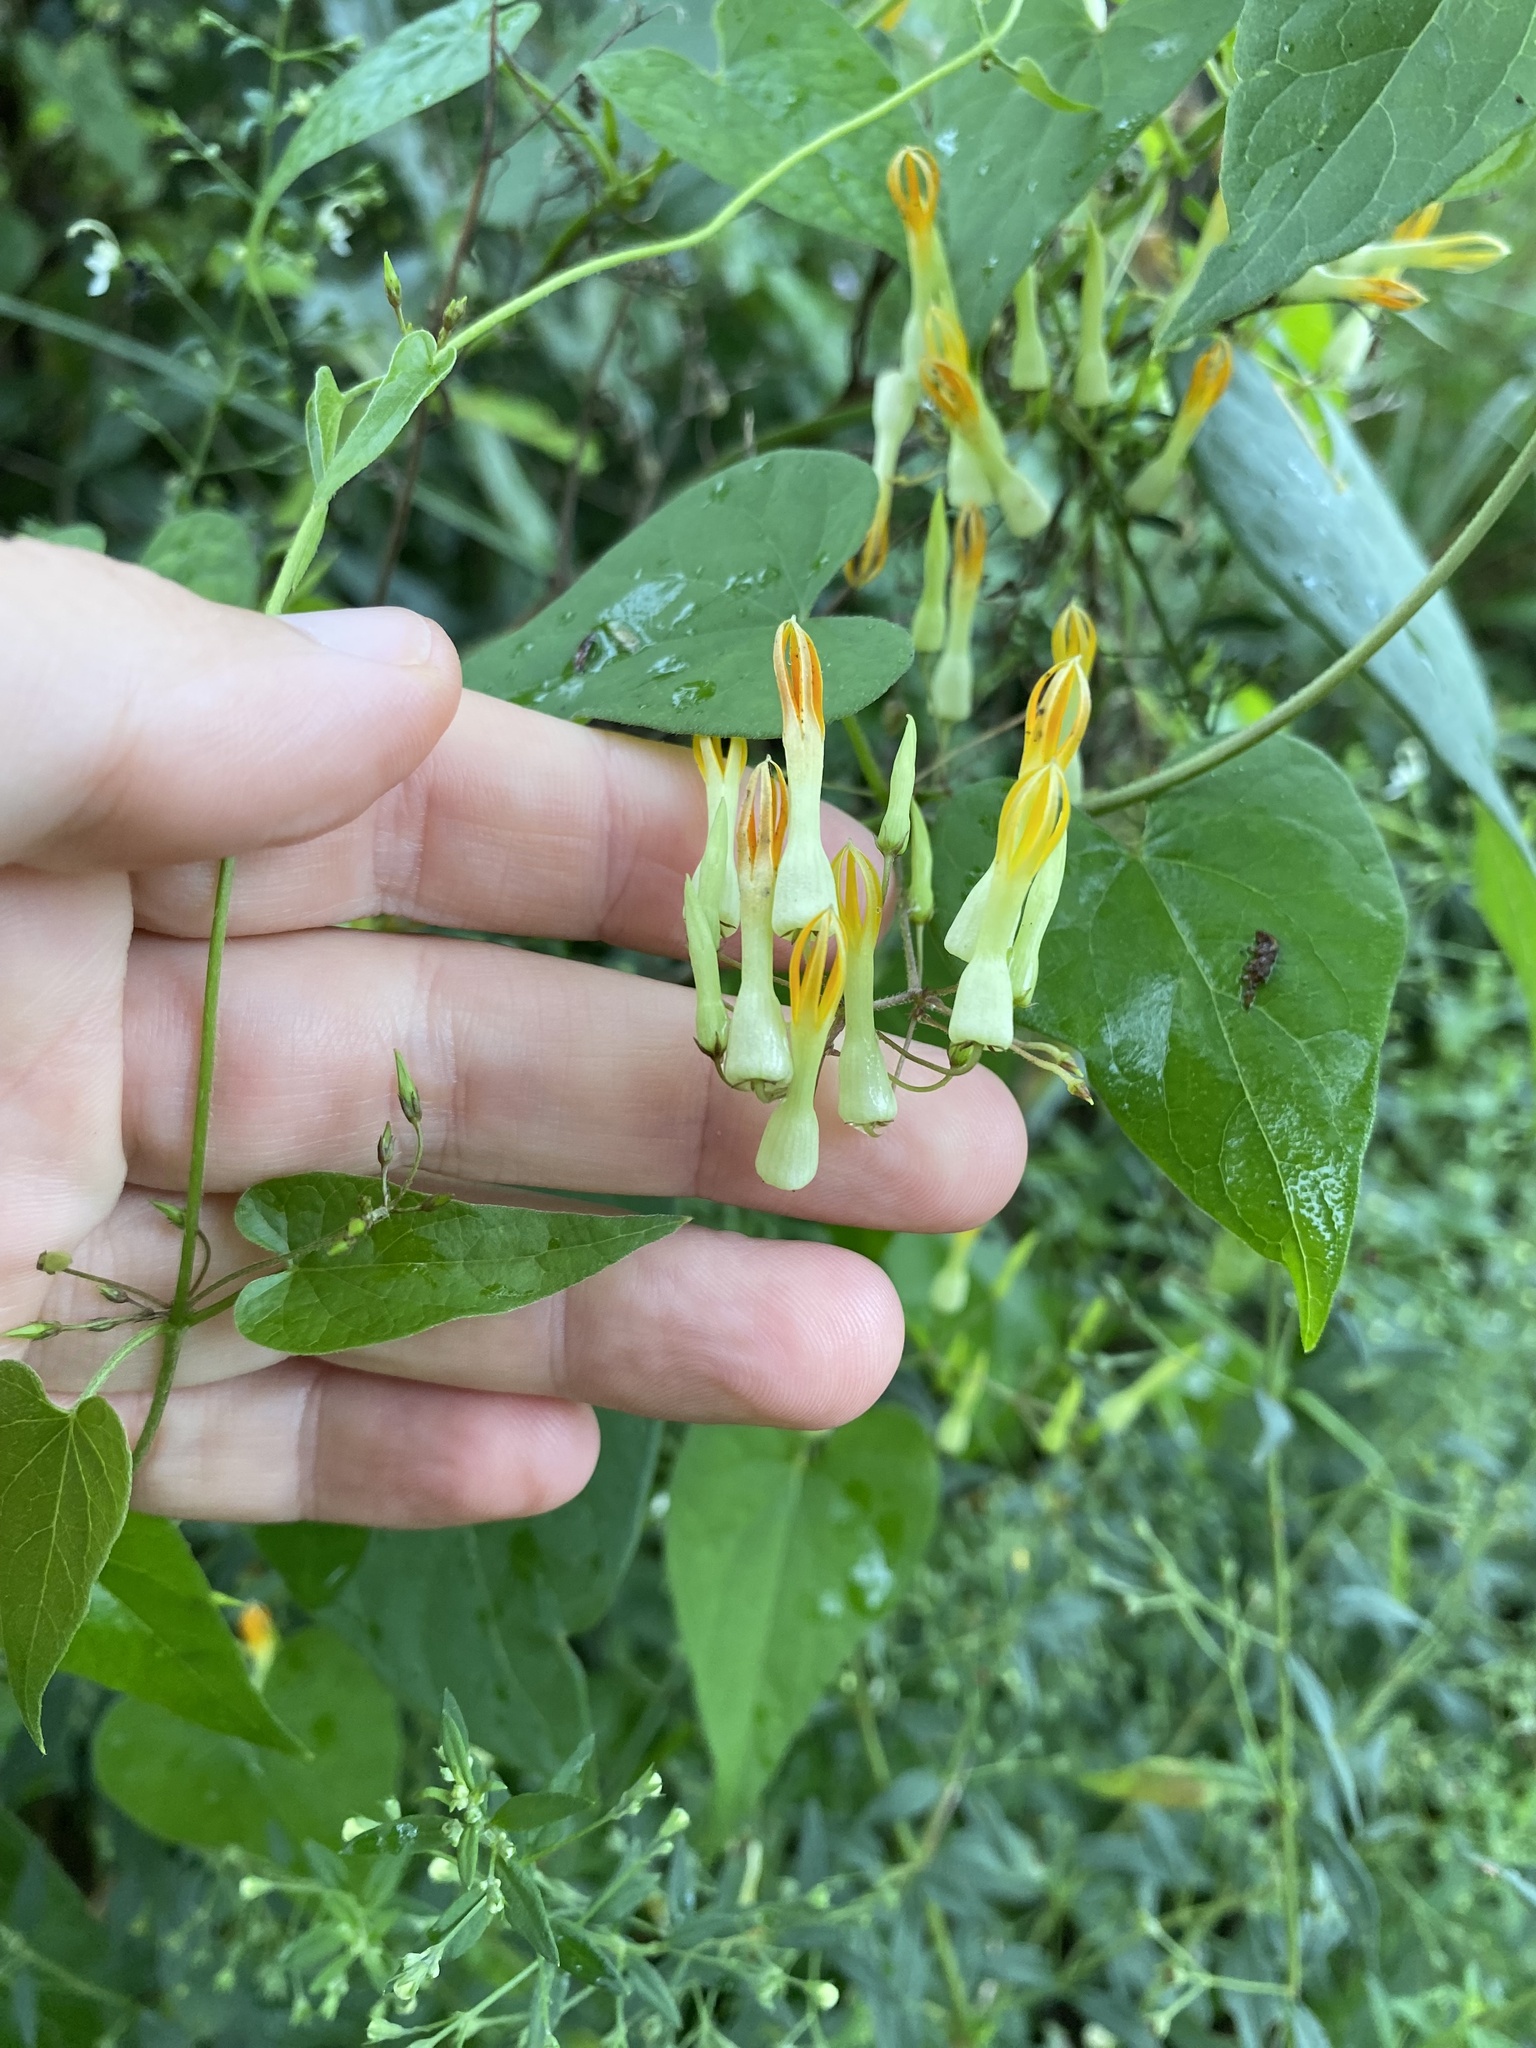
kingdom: Plantae
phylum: Tracheophyta
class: Magnoliopsida
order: Gentianales
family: Apocynaceae
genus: Riocreuxia
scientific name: Riocreuxia torulosa
